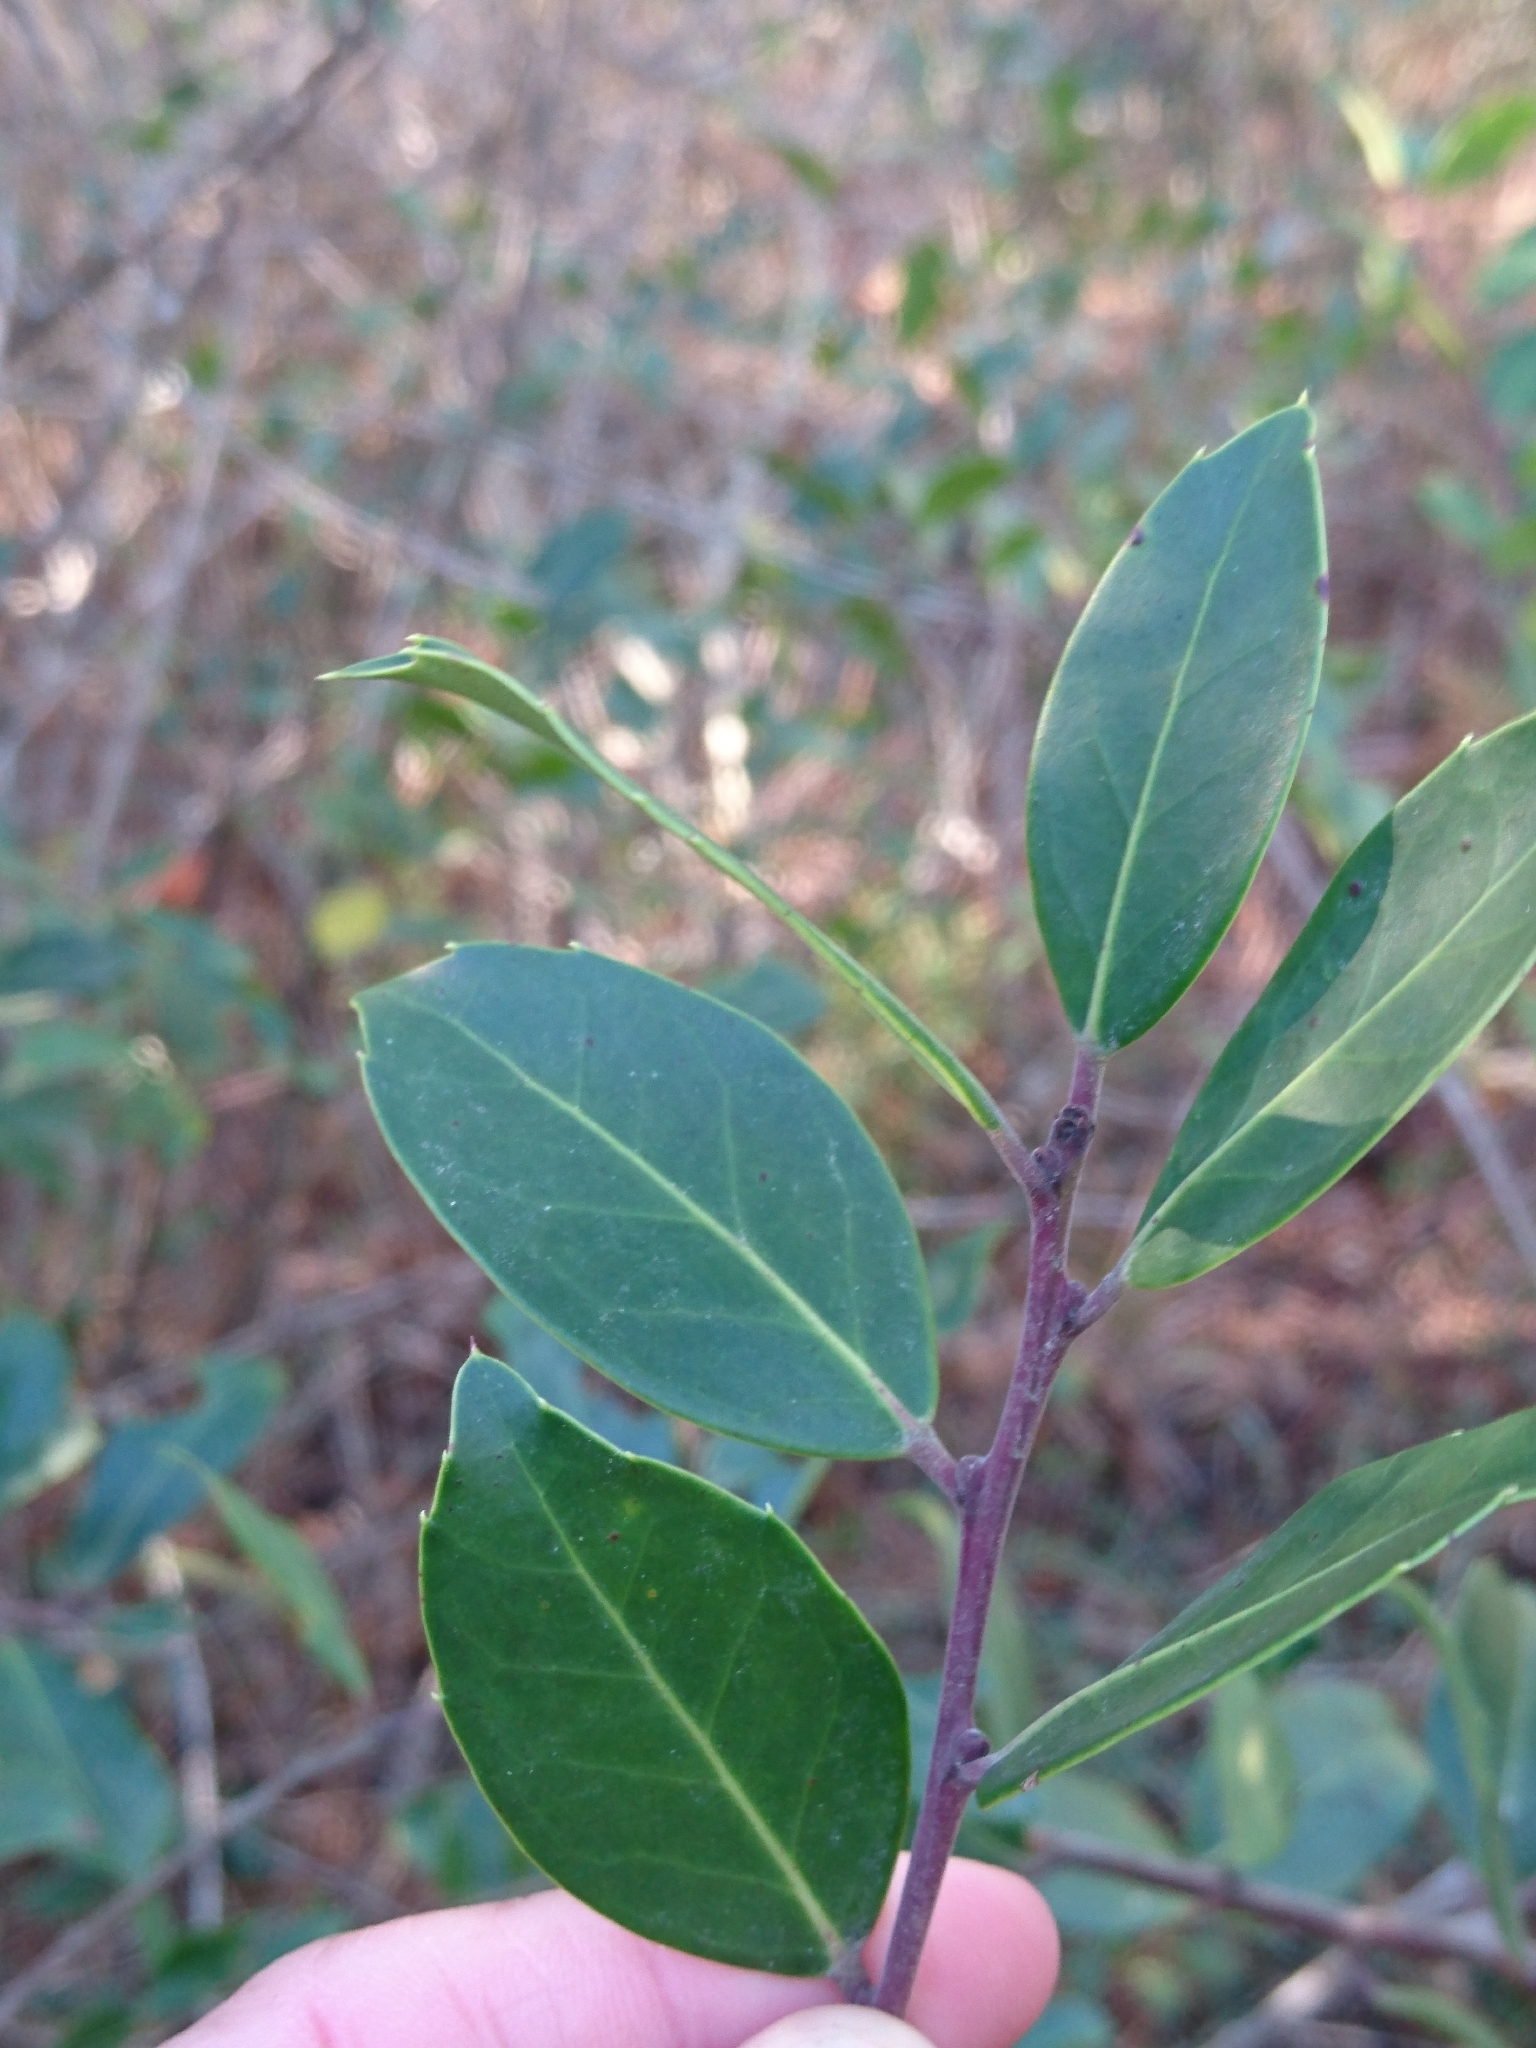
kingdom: Plantae
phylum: Tracheophyta
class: Magnoliopsida
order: Aquifoliales
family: Aquifoliaceae
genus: Ilex
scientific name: Ilex coriacea
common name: Sweet gallberry
